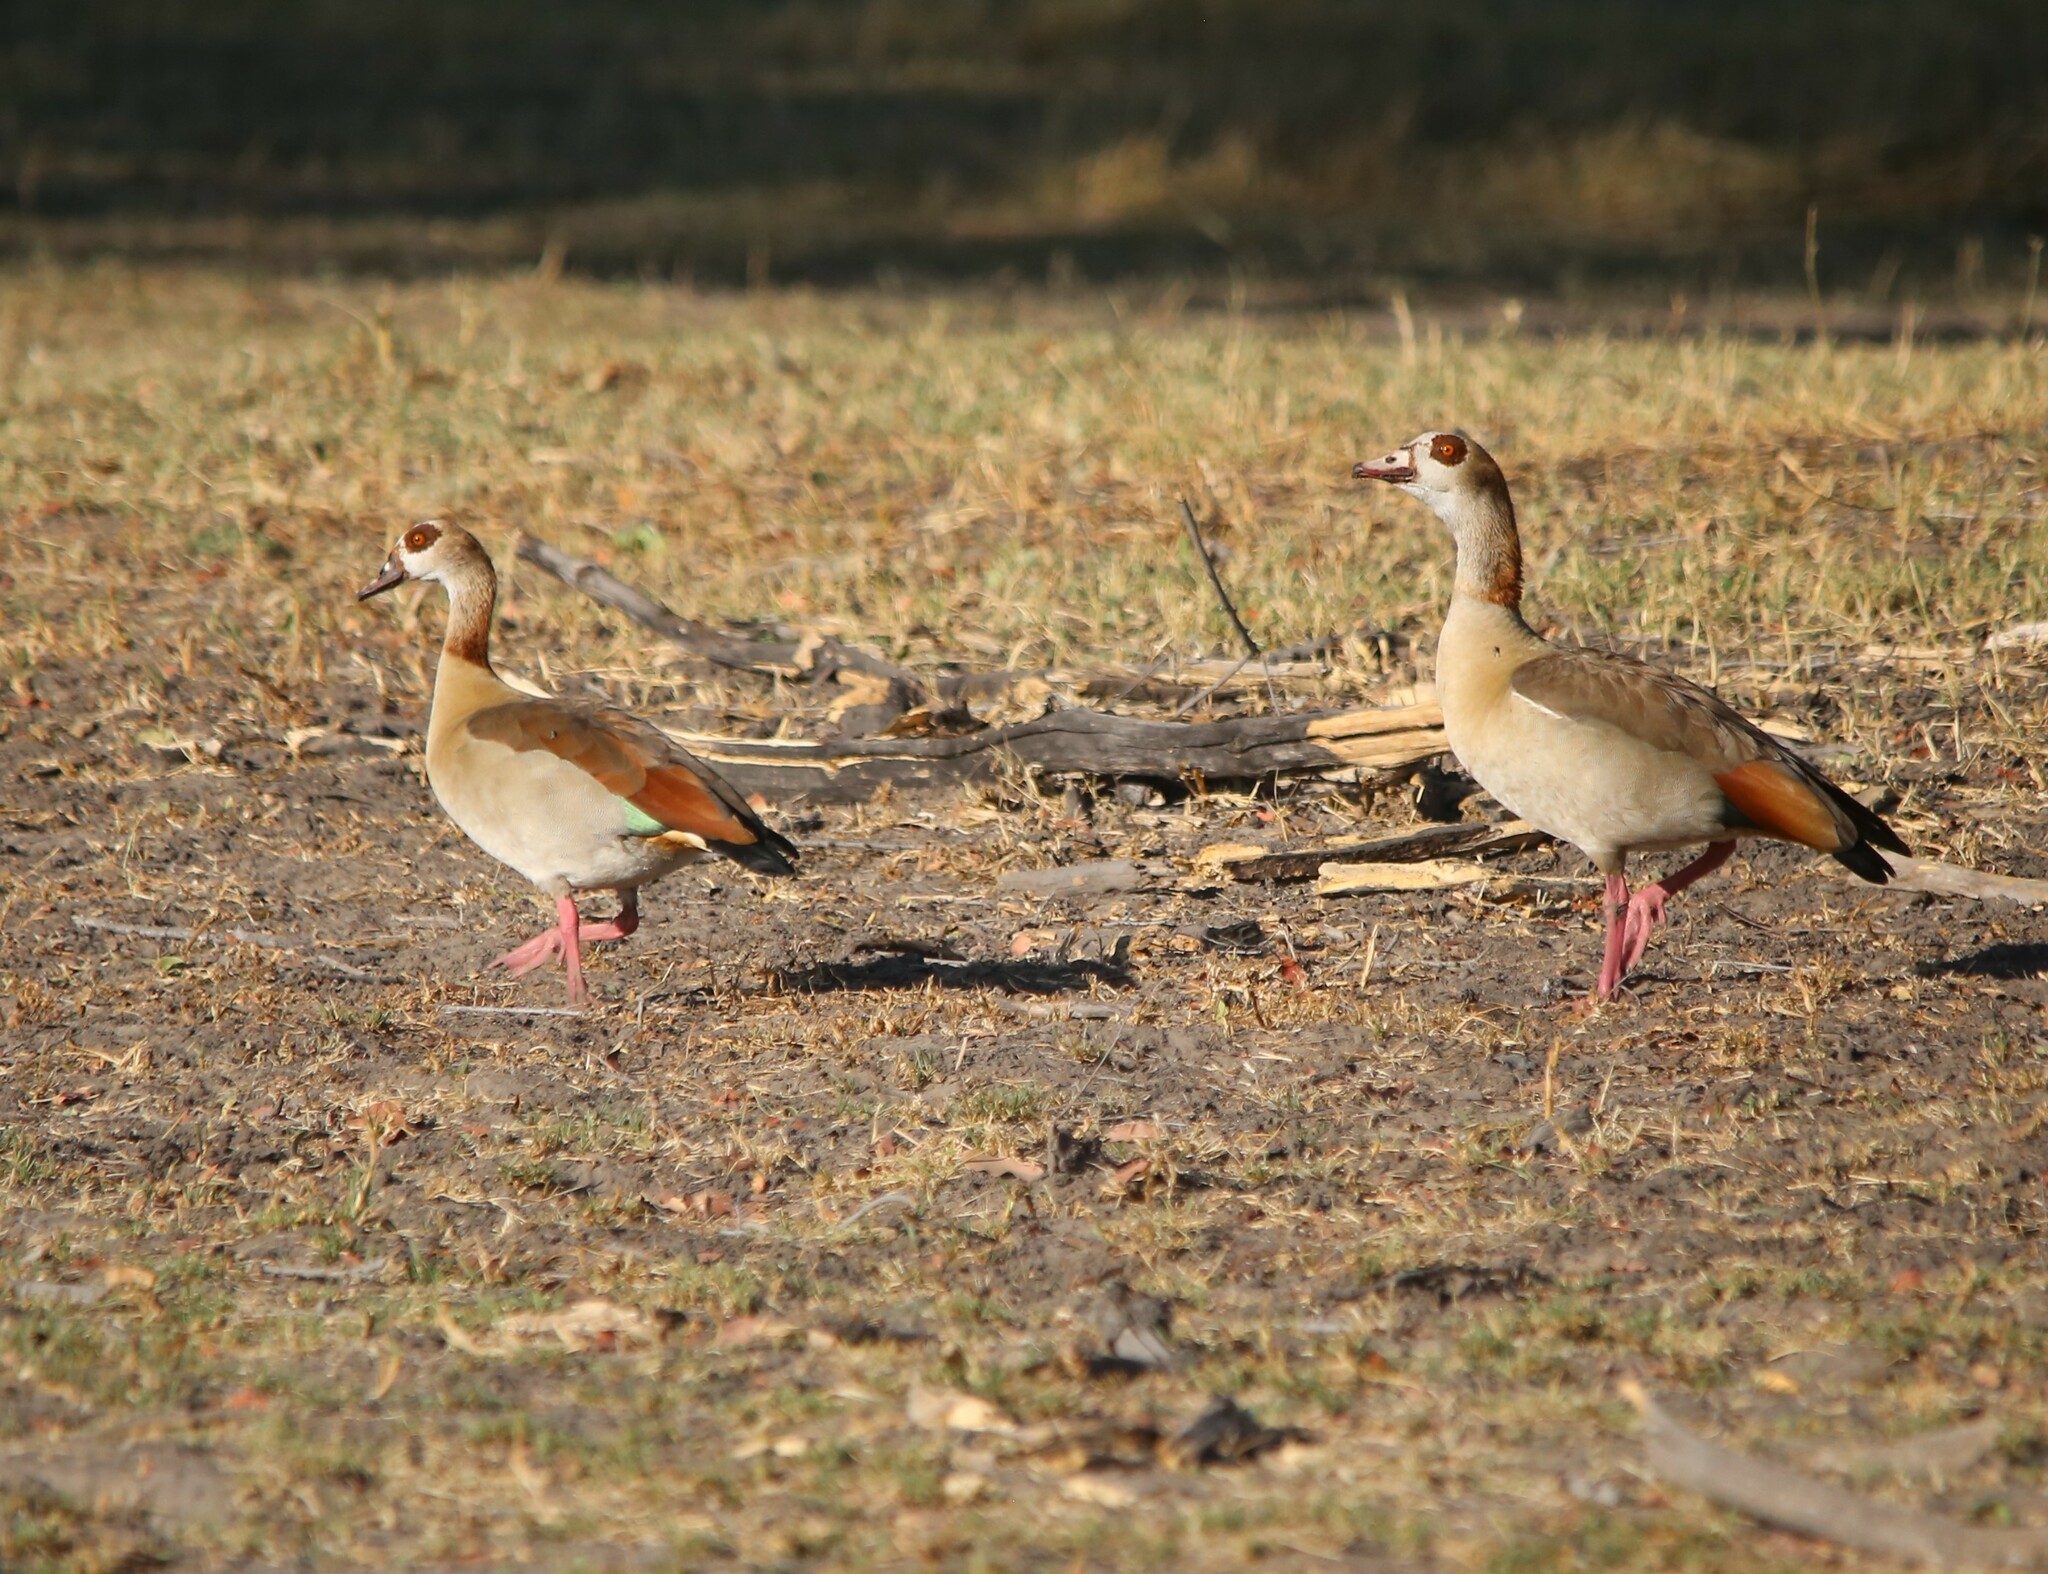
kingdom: Animalia
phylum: Chordata
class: Aves
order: Anseriformes
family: Anatidae
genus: Alopochen
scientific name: Alopochen aegyptiaca
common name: Egyptian goose
